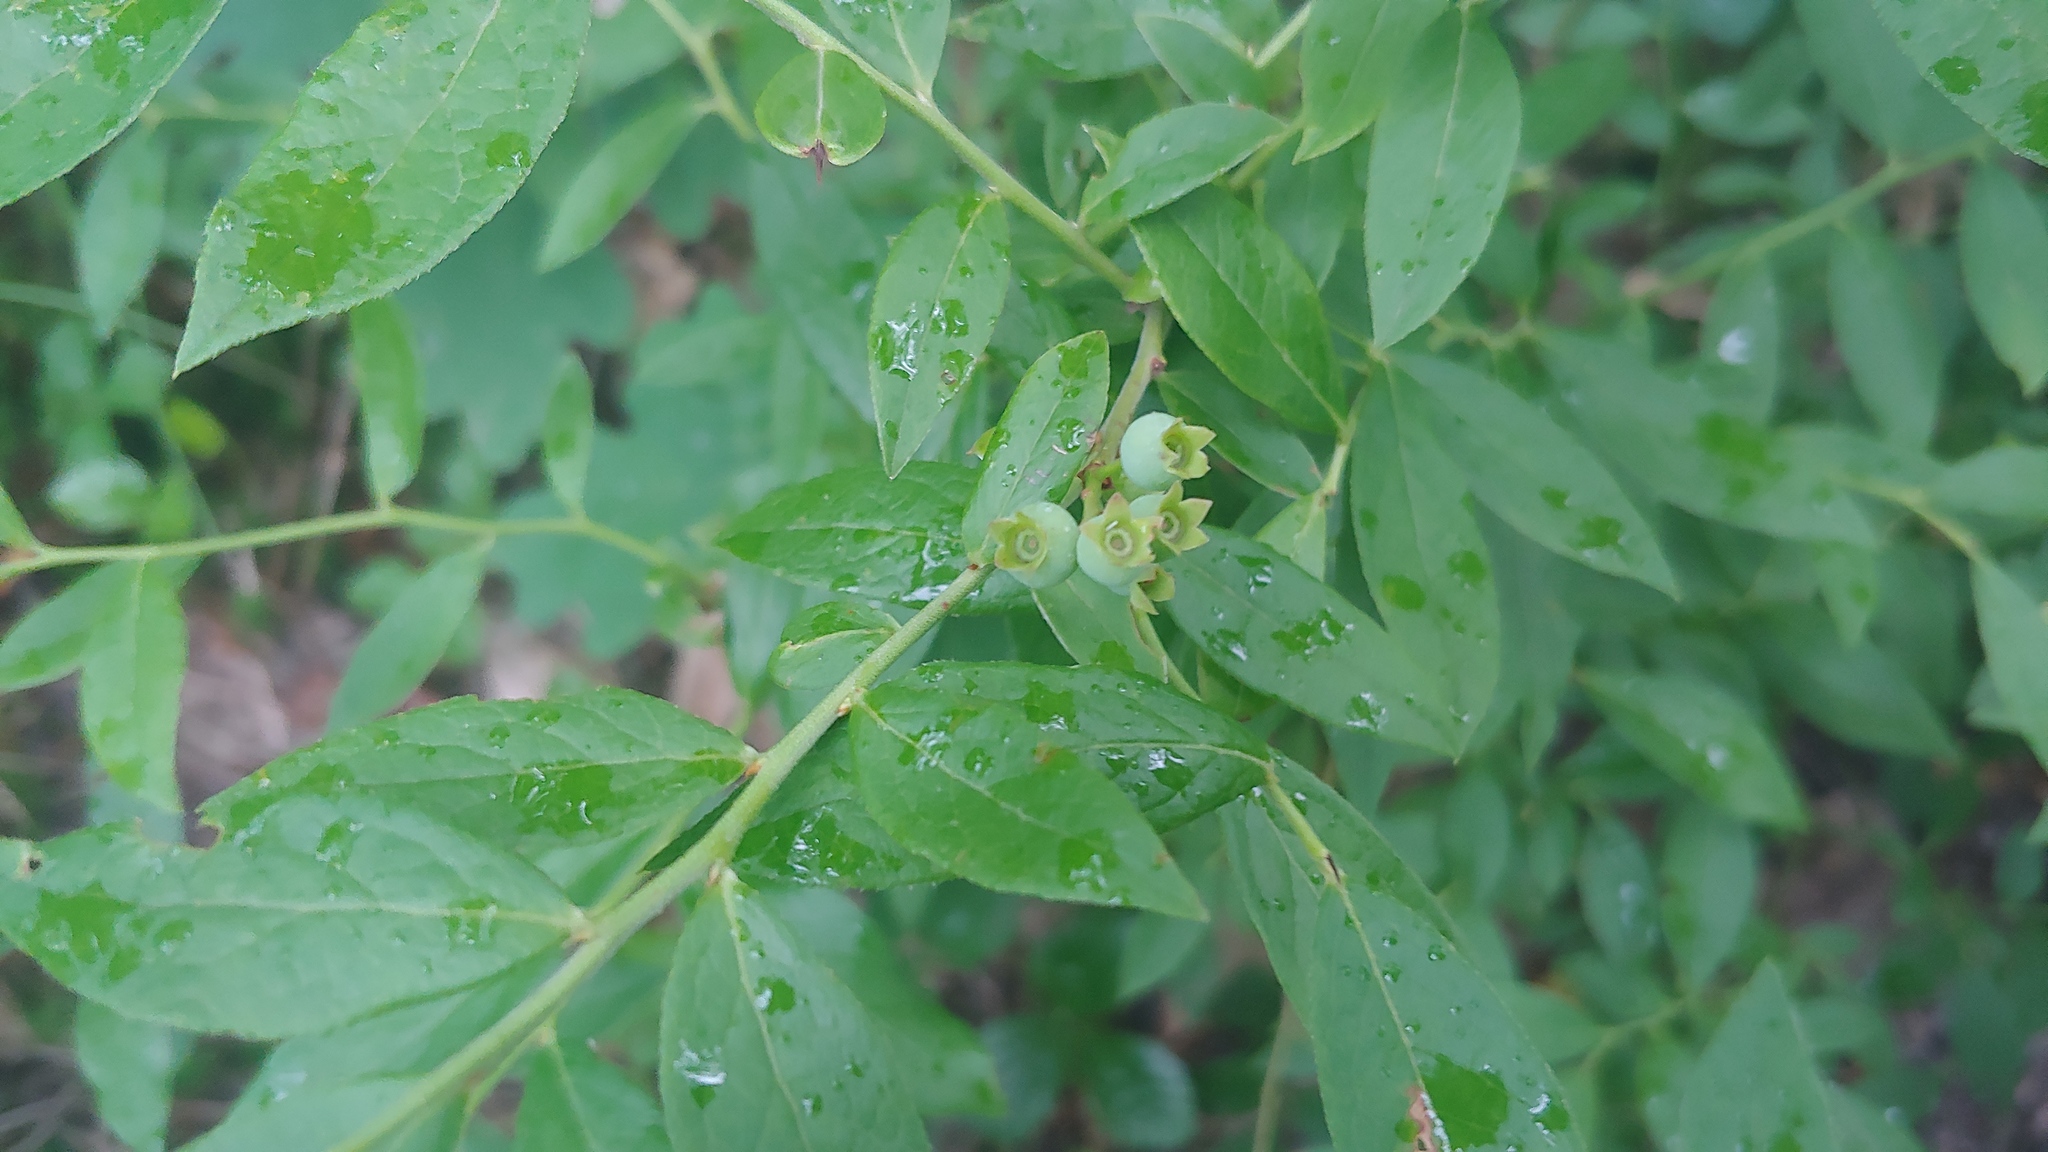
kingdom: Plantae
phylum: Tracheophyta
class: Magnoliopsida
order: Ericales
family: Ericaceae
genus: Vaccinium
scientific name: Vaccinium angustifolium
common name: Early lowbush blueberry
